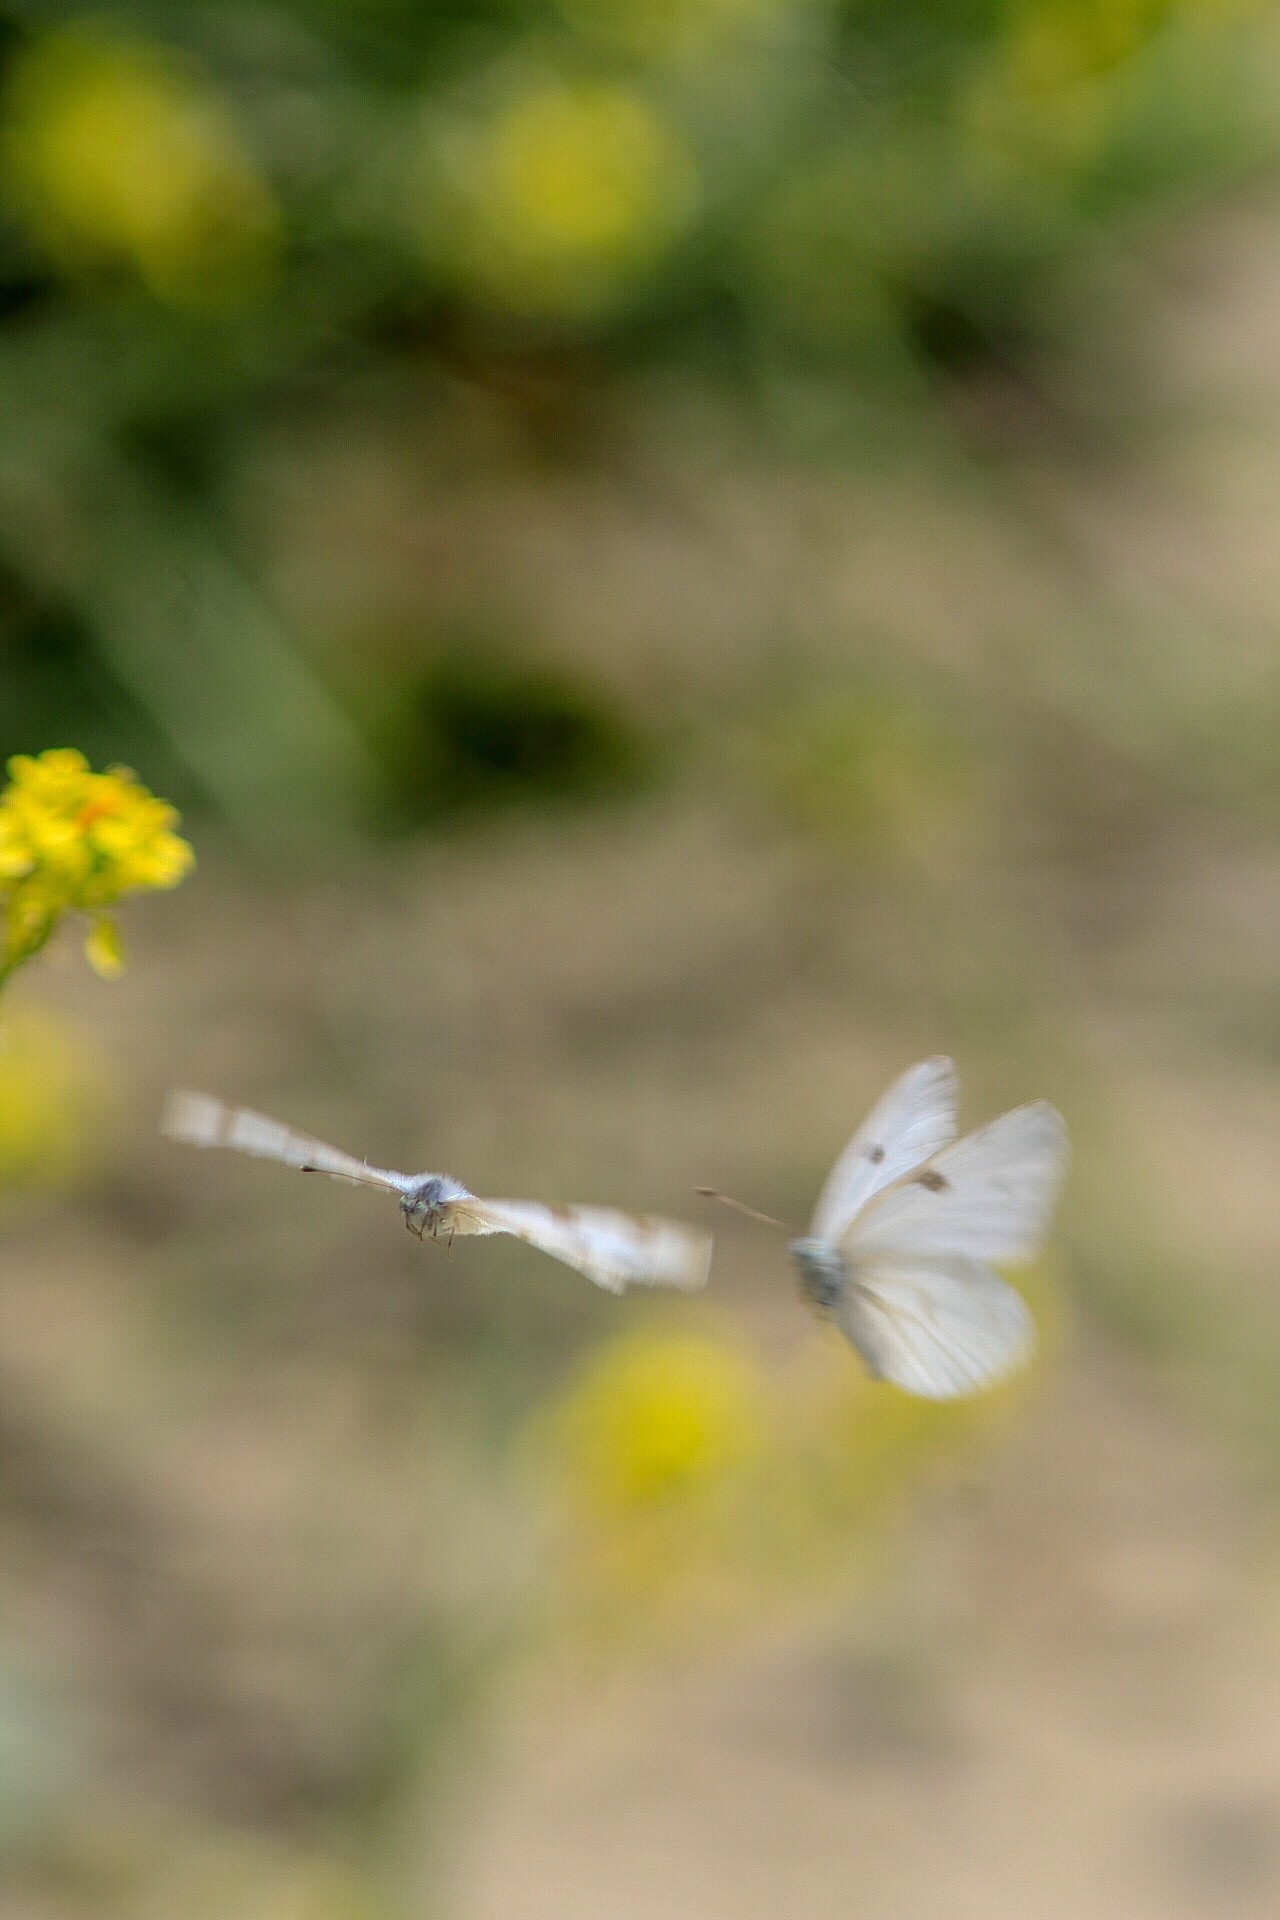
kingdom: Animalia
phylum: Arthropoda
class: Insecta
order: Lepidoptera
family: Pieridae
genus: Pontia
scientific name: Pontia protodice
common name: Checkered white
